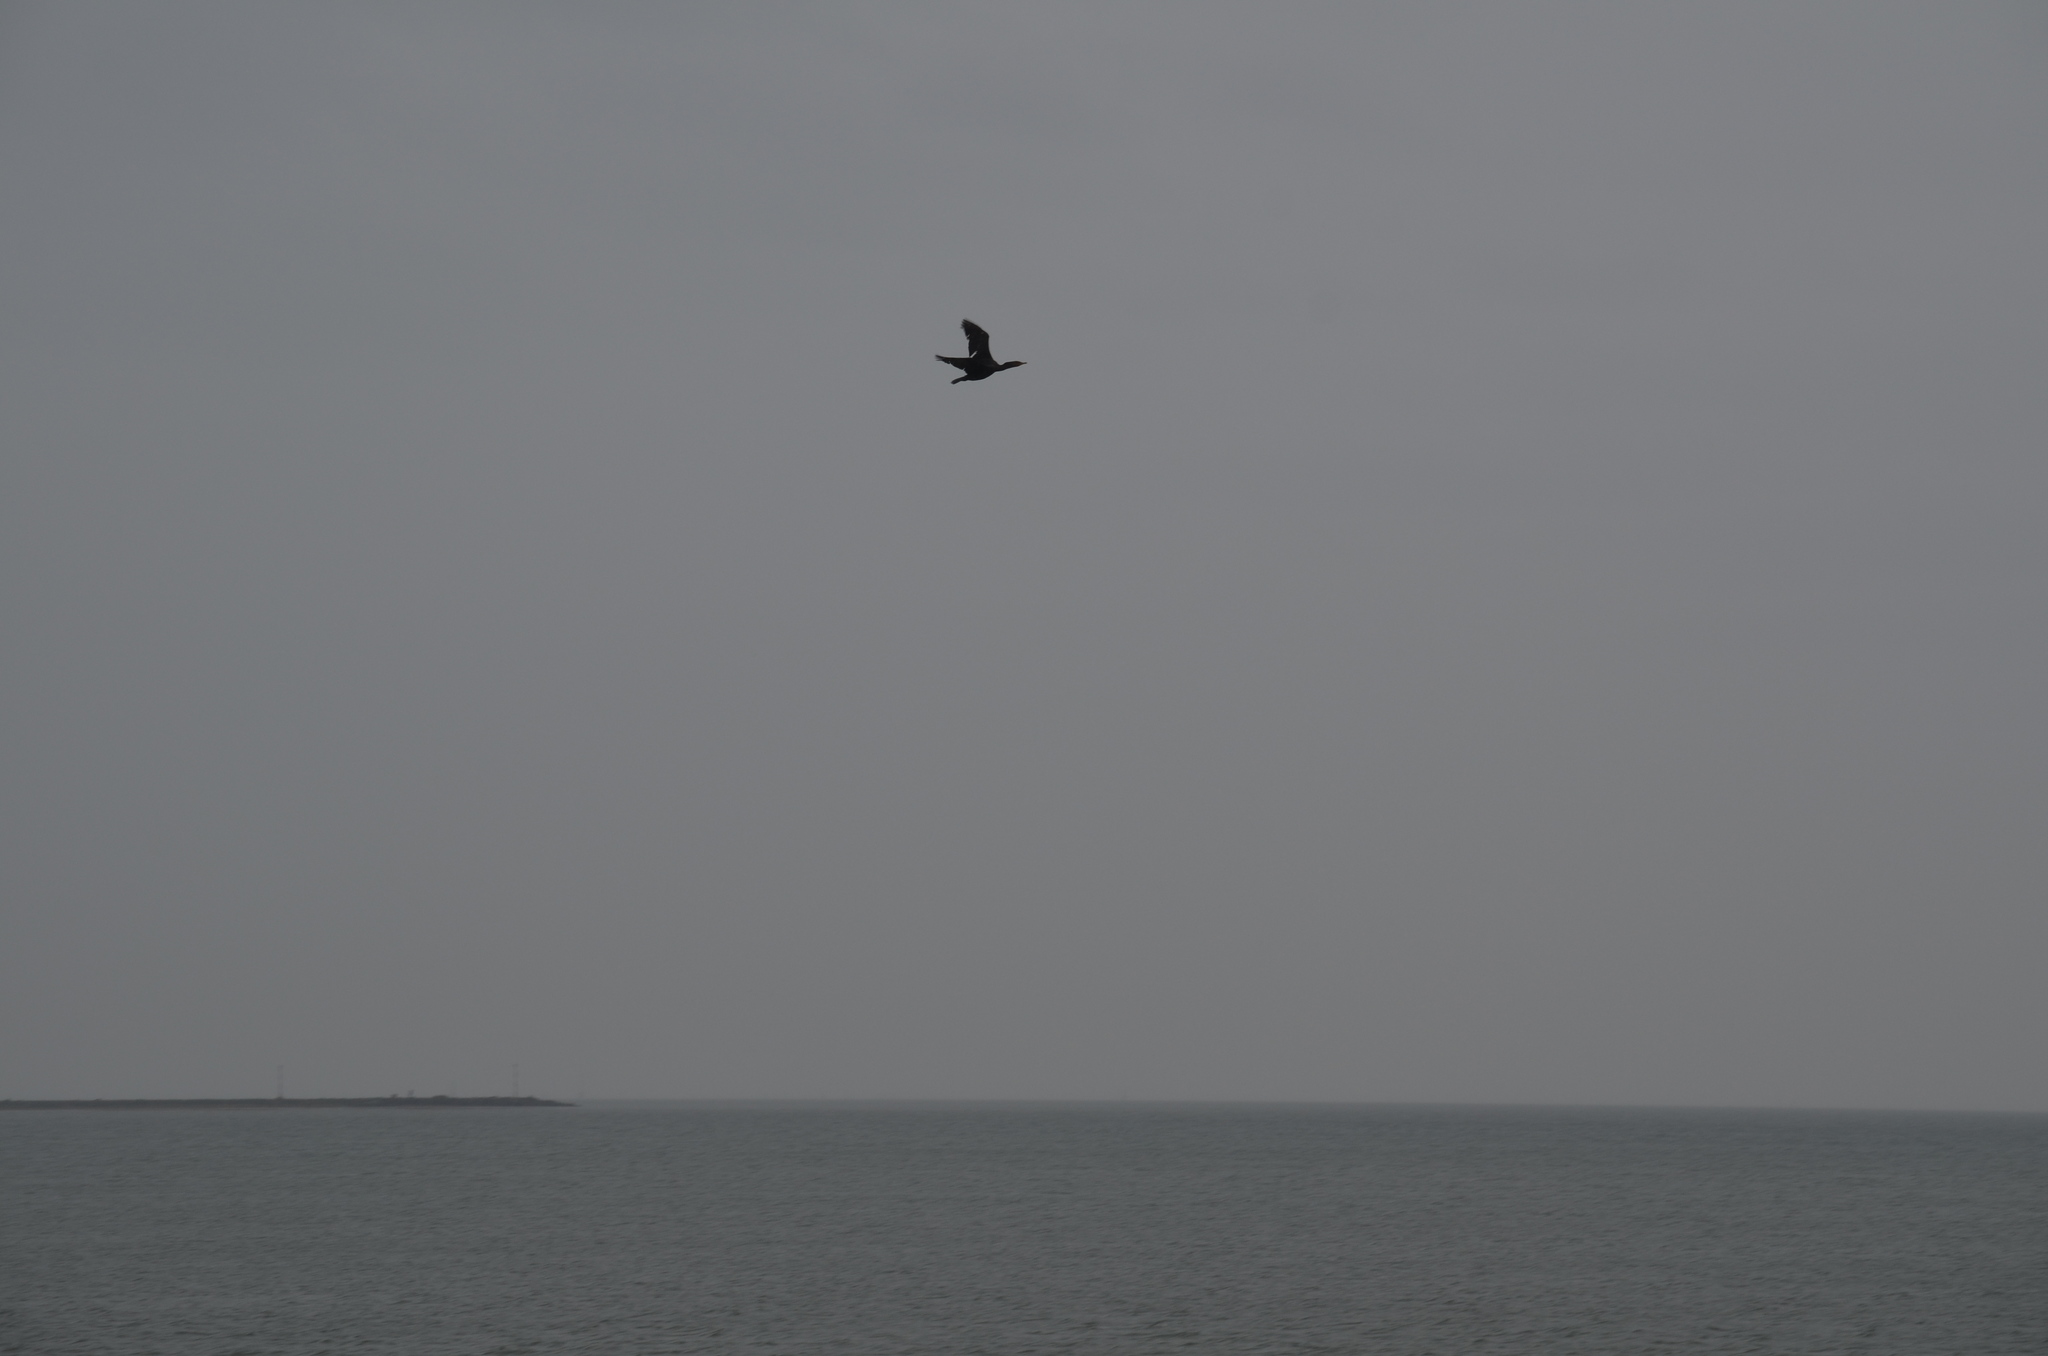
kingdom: Animalia
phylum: Chordata
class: Aves
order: Suliformes
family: Phalacrocoracidae
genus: Phalacrocorax
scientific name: Phalacrocorax auritus
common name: Double-crested cormorant
